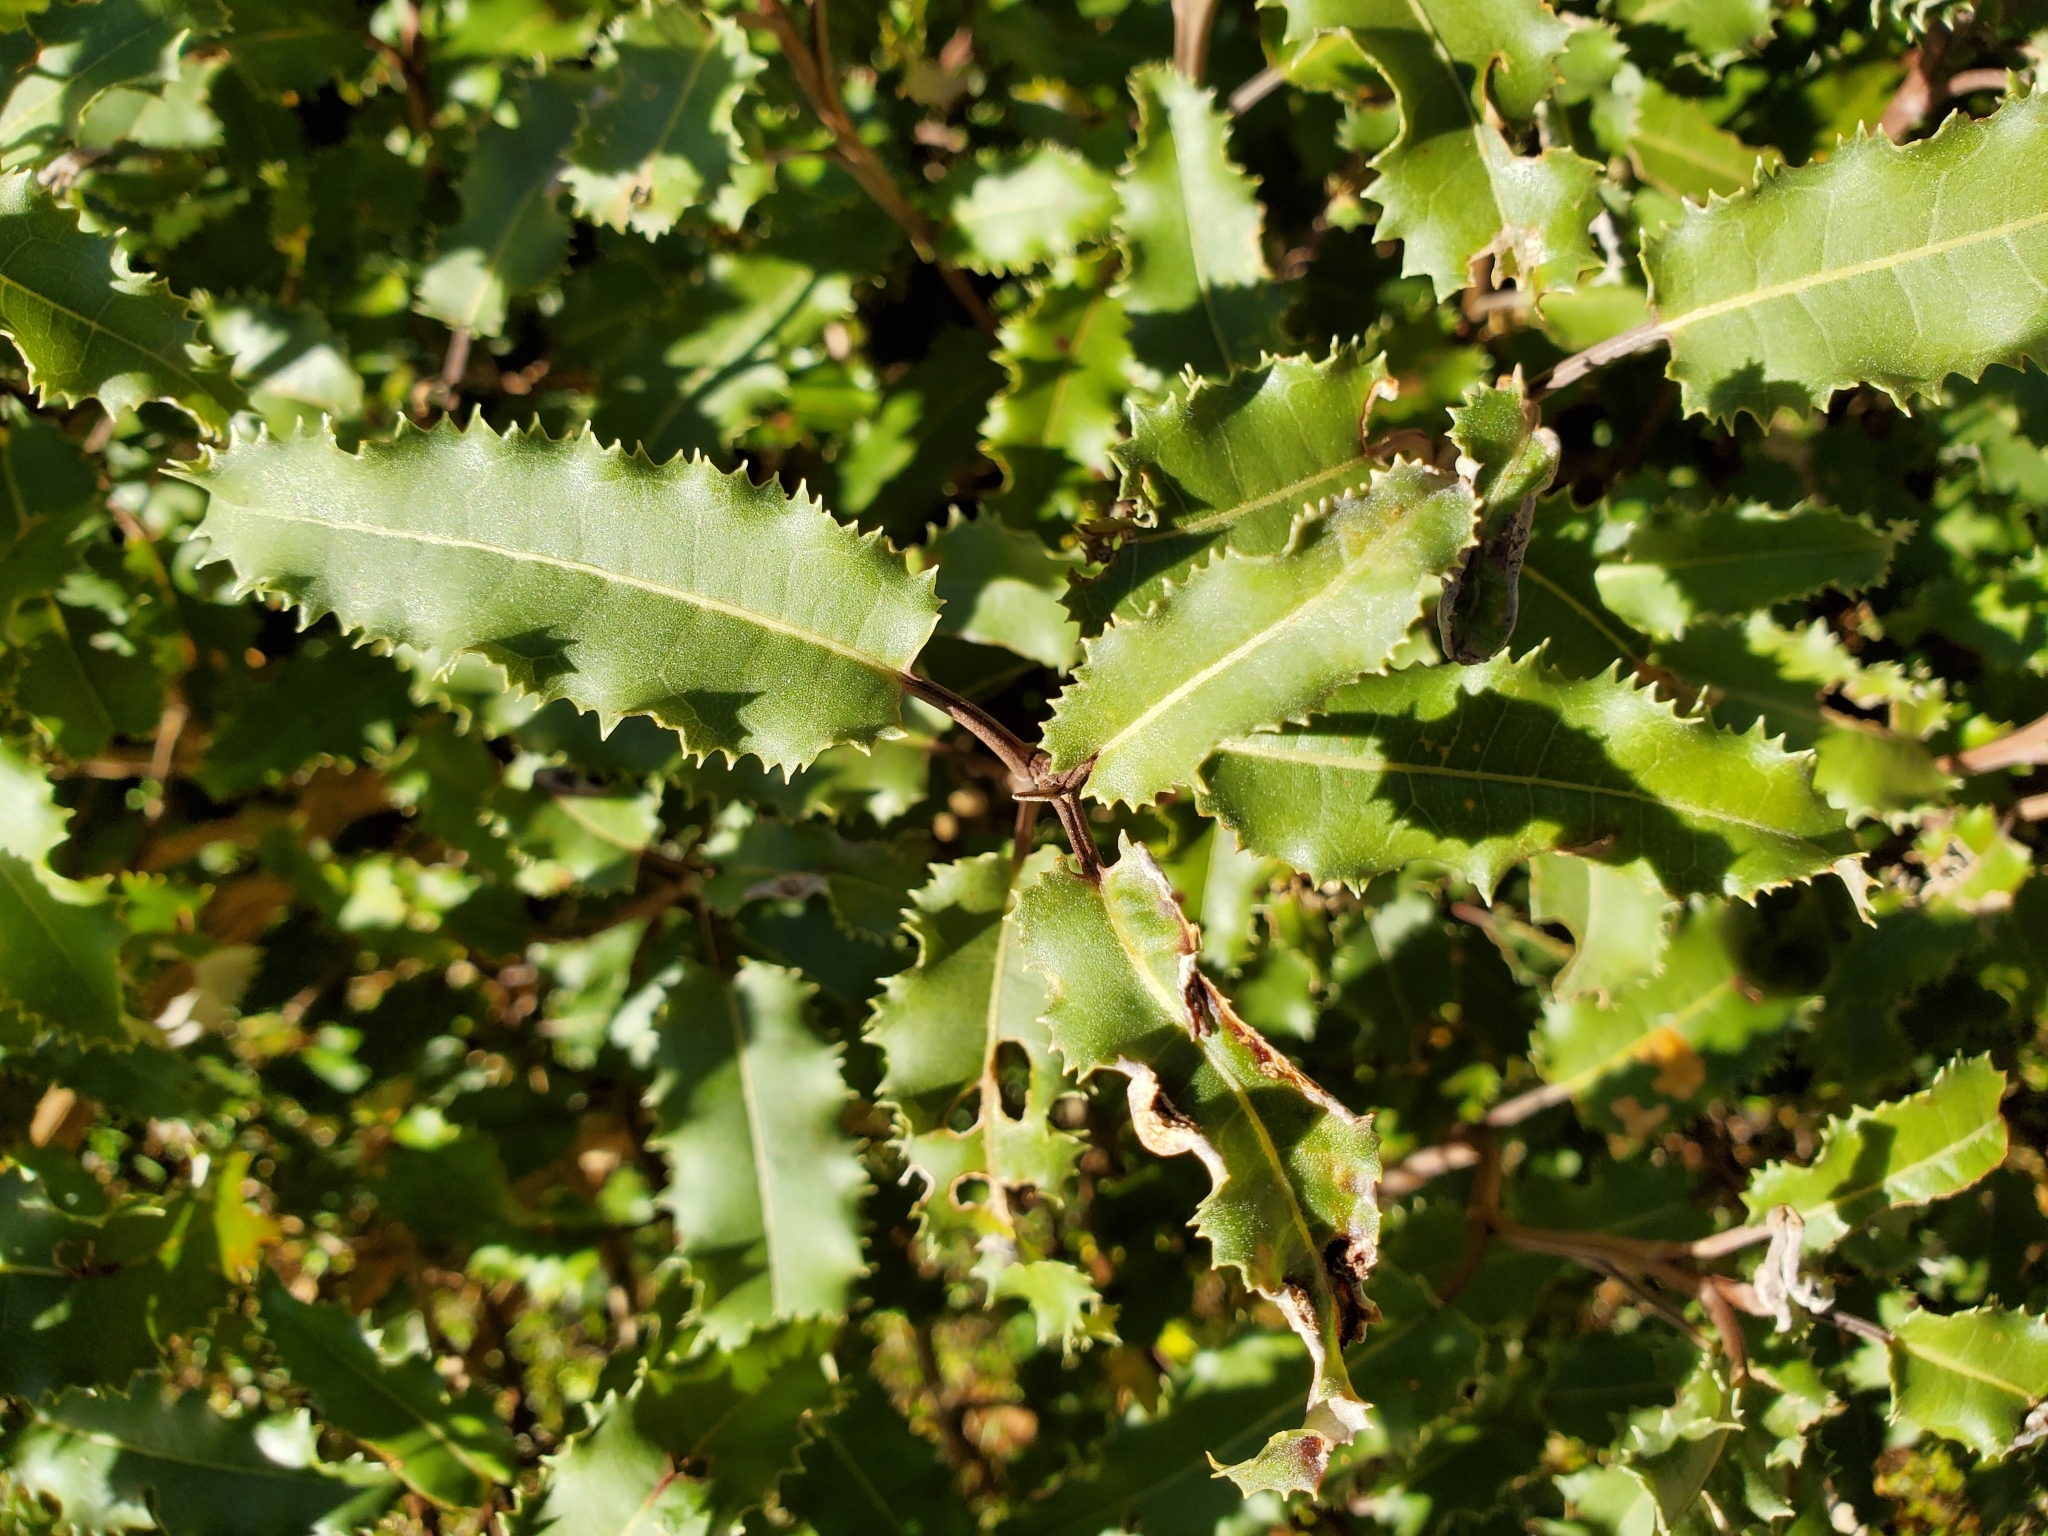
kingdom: Plantae
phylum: Tracheophyta
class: Magnoliopsida
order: Asterales
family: Asteraceae
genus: Olearia
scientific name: Olearia ilicifolia
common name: Maori-holly
